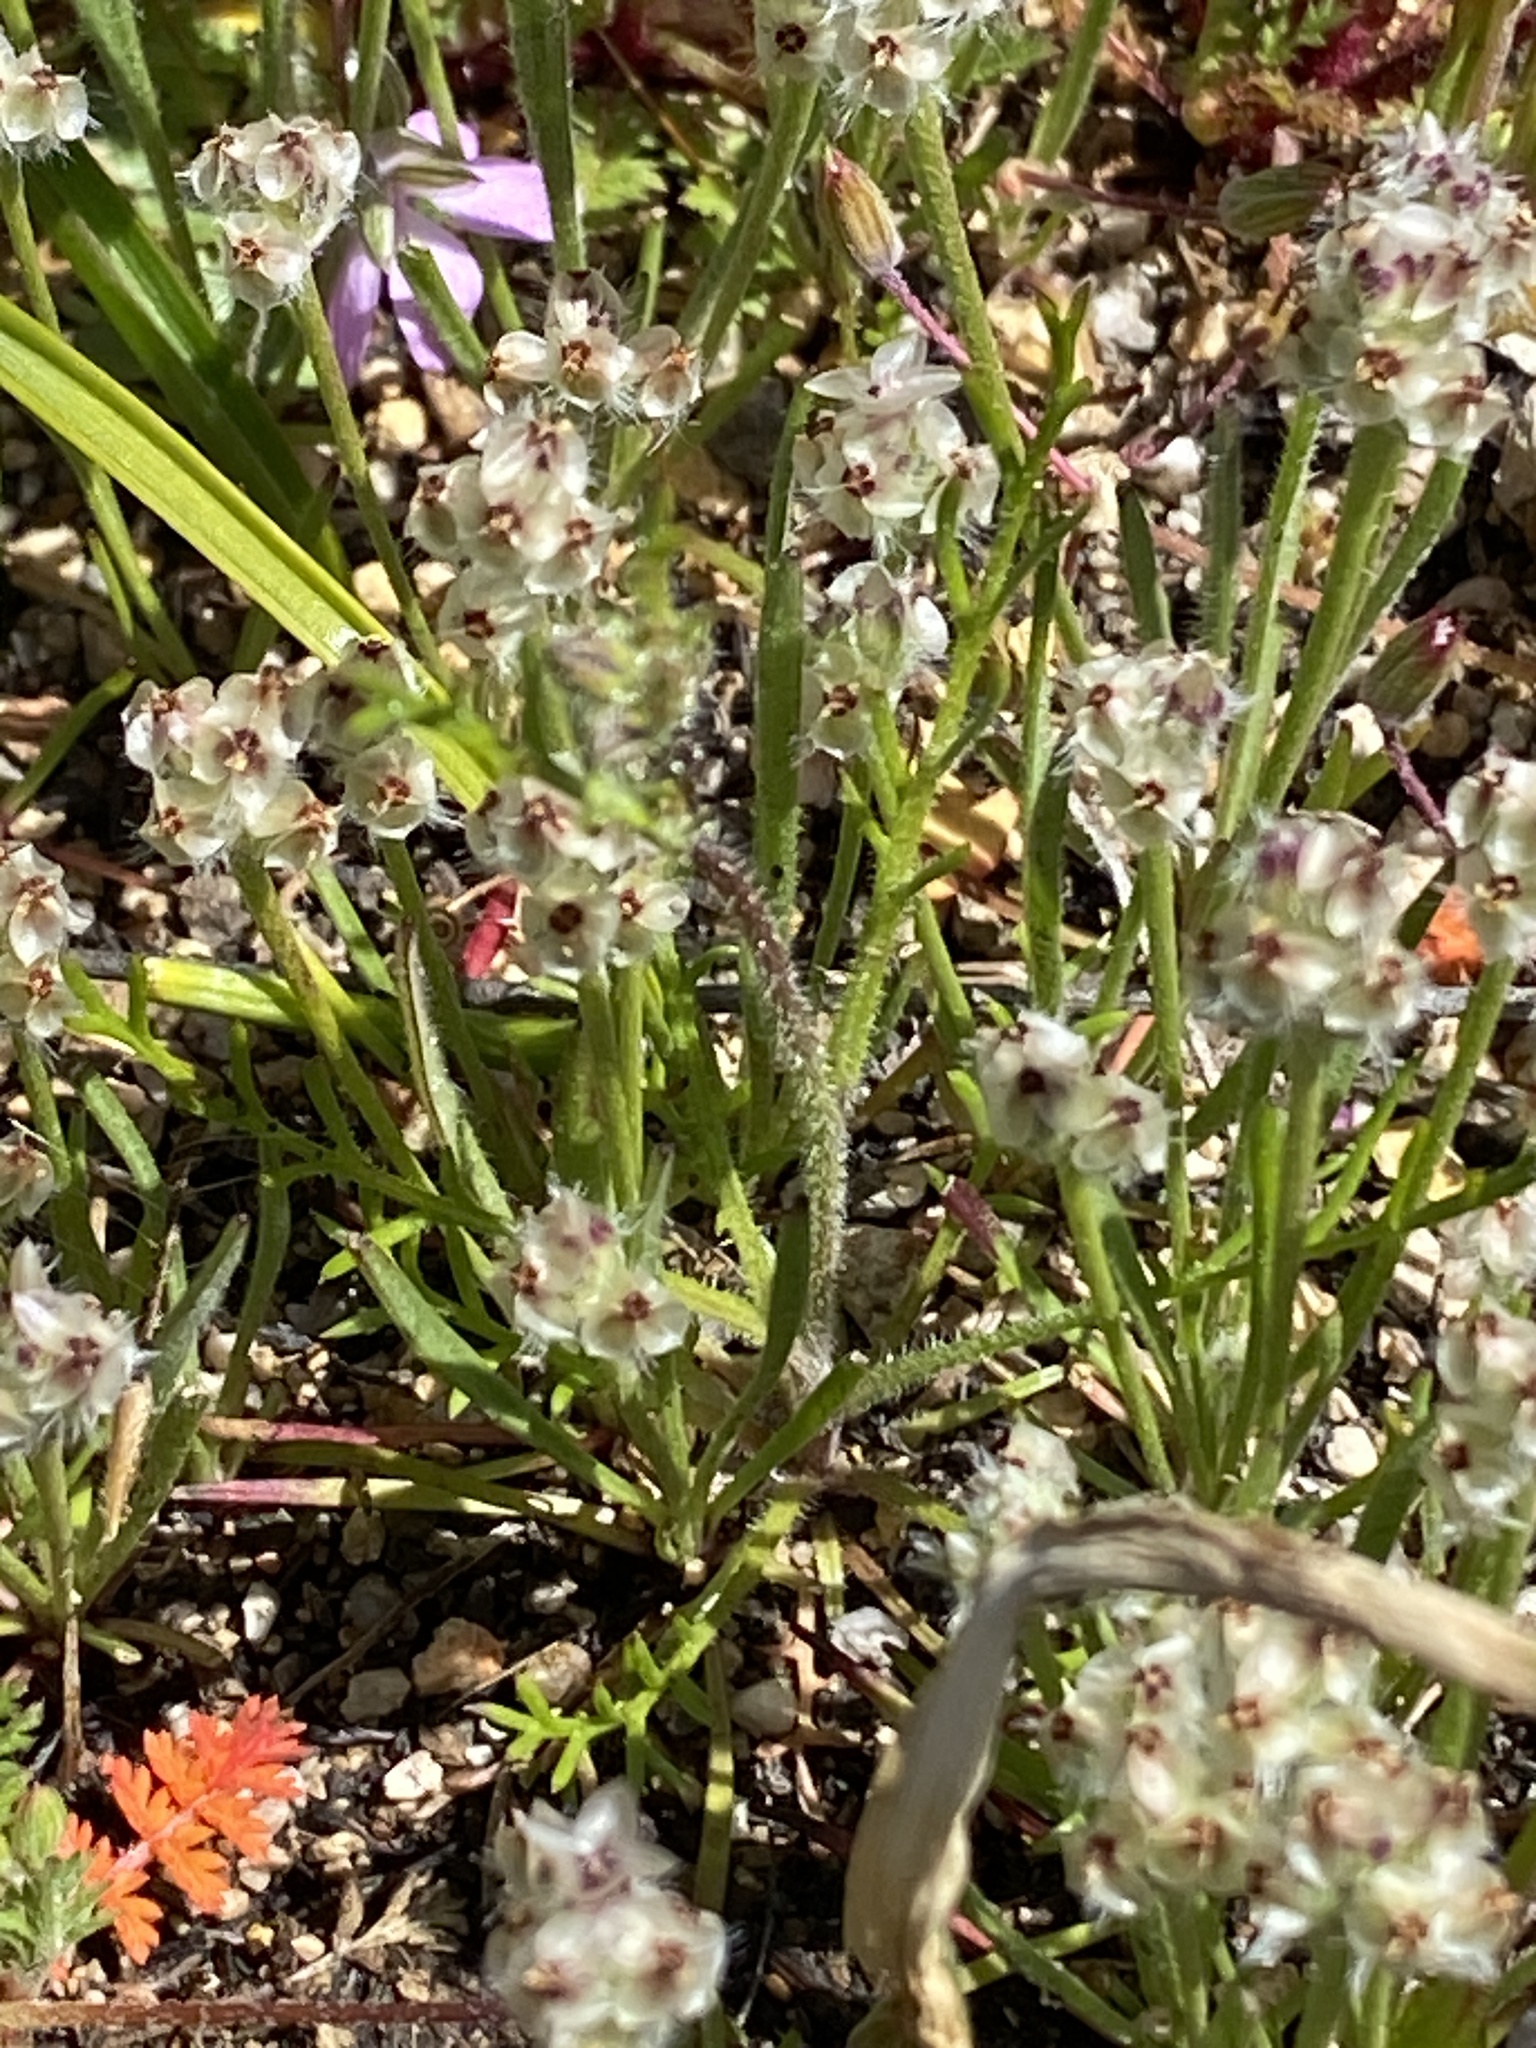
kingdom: Plantae
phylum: Tracheophyta
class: Magnoliopsida
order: Lamiales
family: Plantaginaceae
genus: Plantago
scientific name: Plantago erecta
